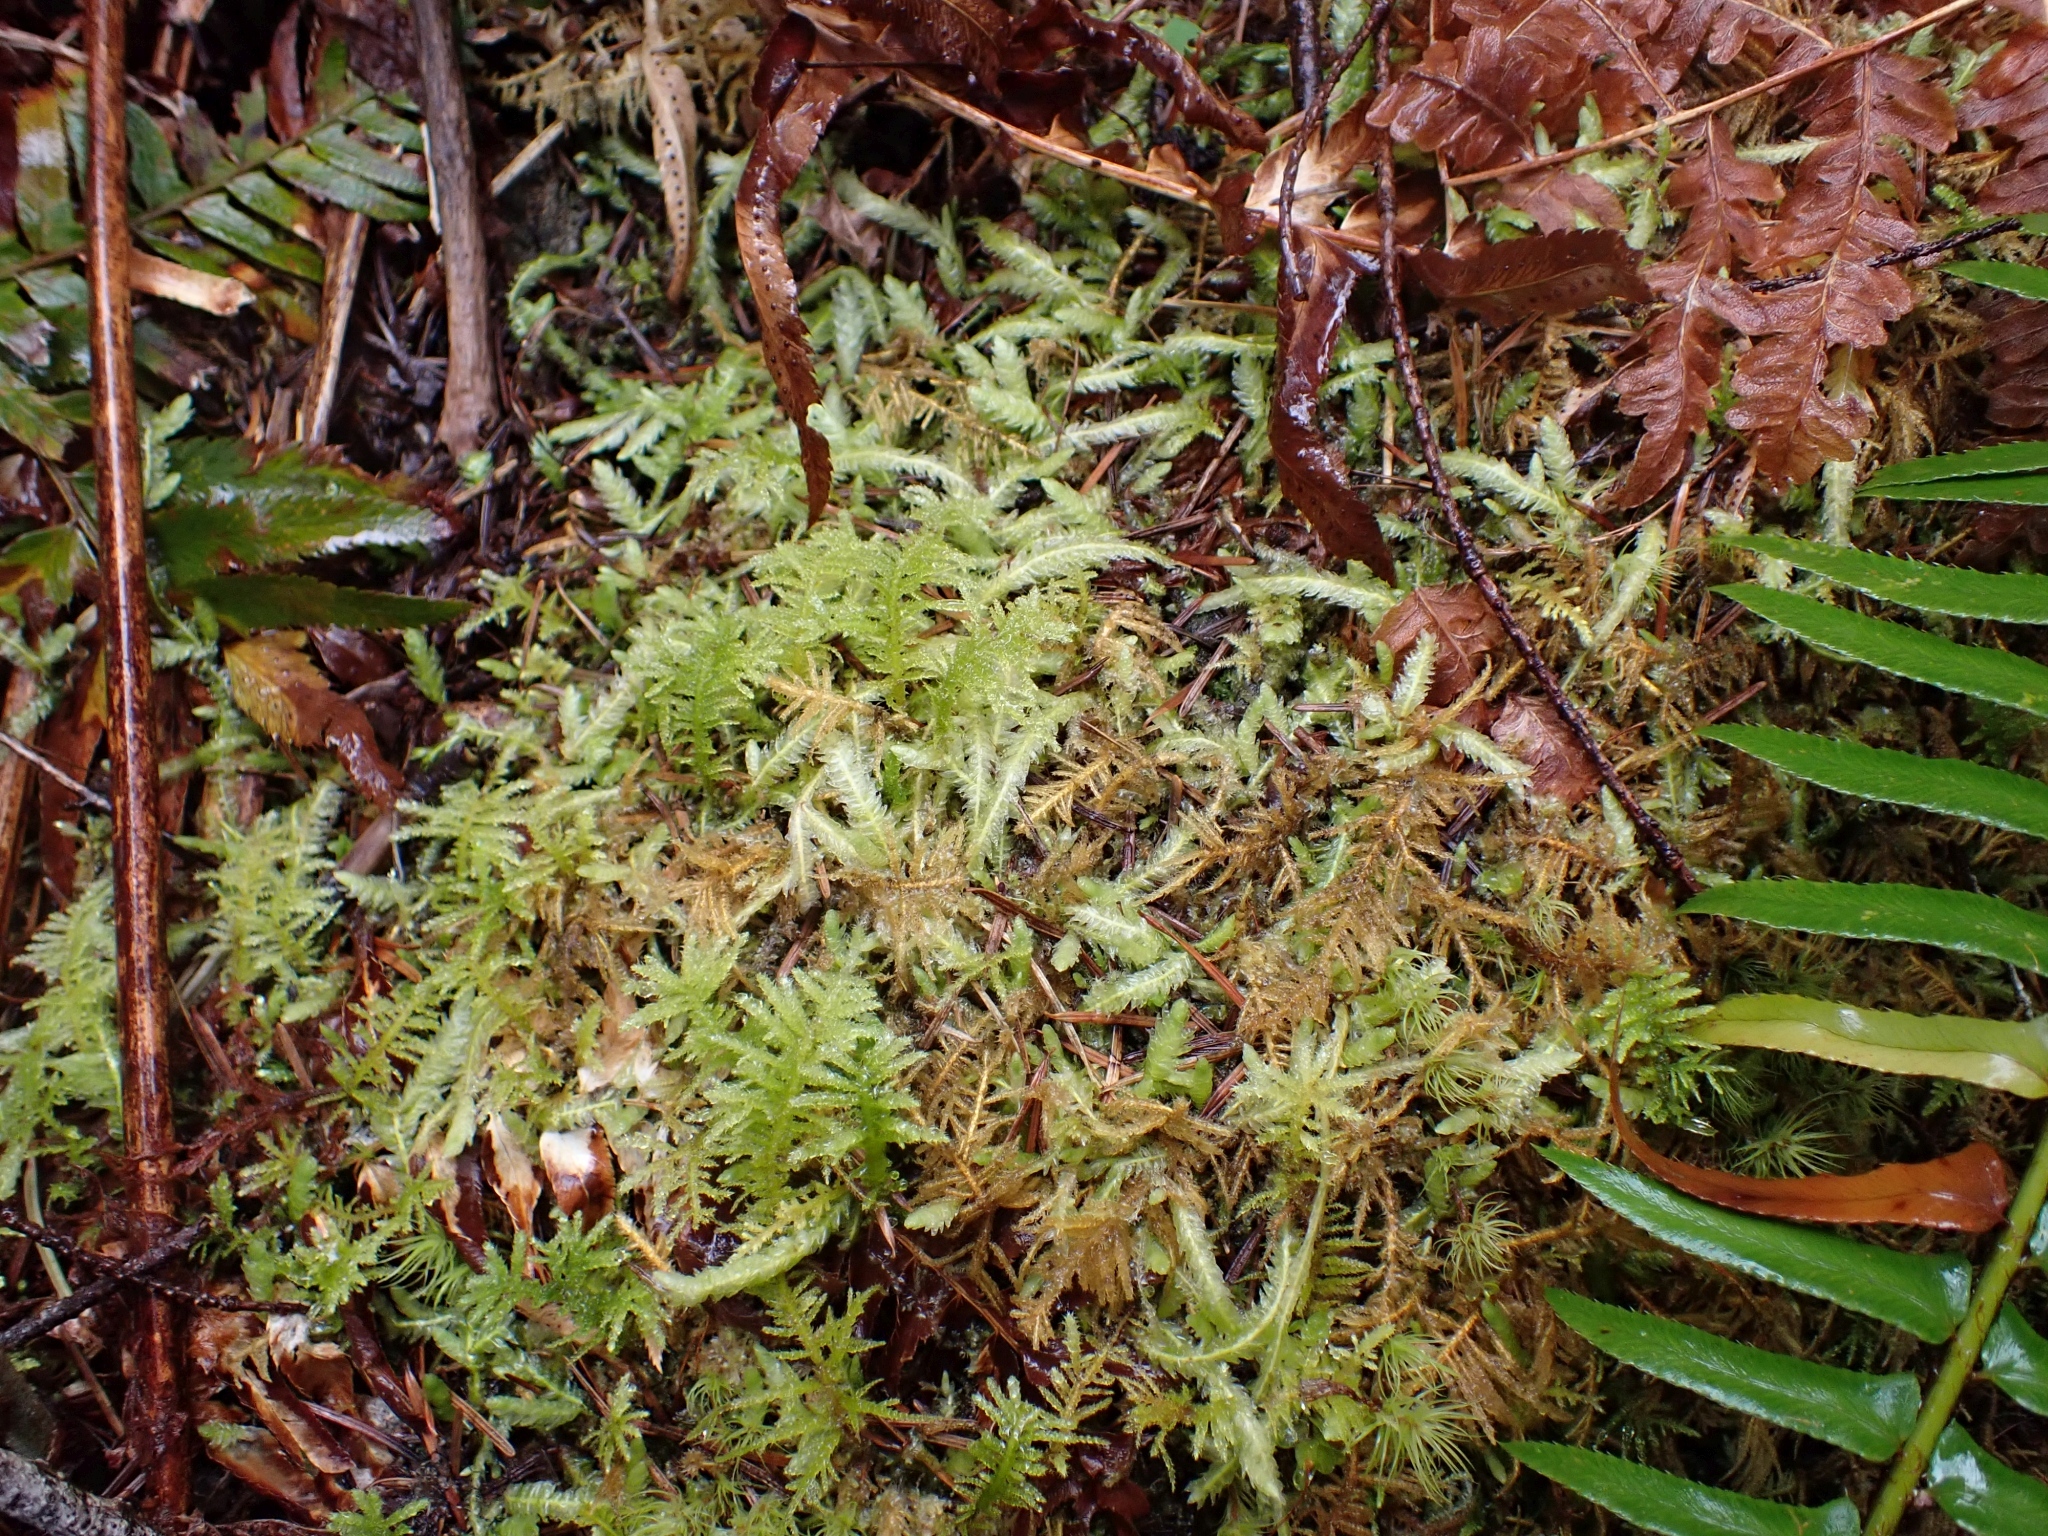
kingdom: Plantae
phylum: Bryophyta
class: Bryopsida
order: Hypnales
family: Plagiotheciaceae
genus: Plagiothecium
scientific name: Plagiothecium undulatum
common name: Waved silk-moss
